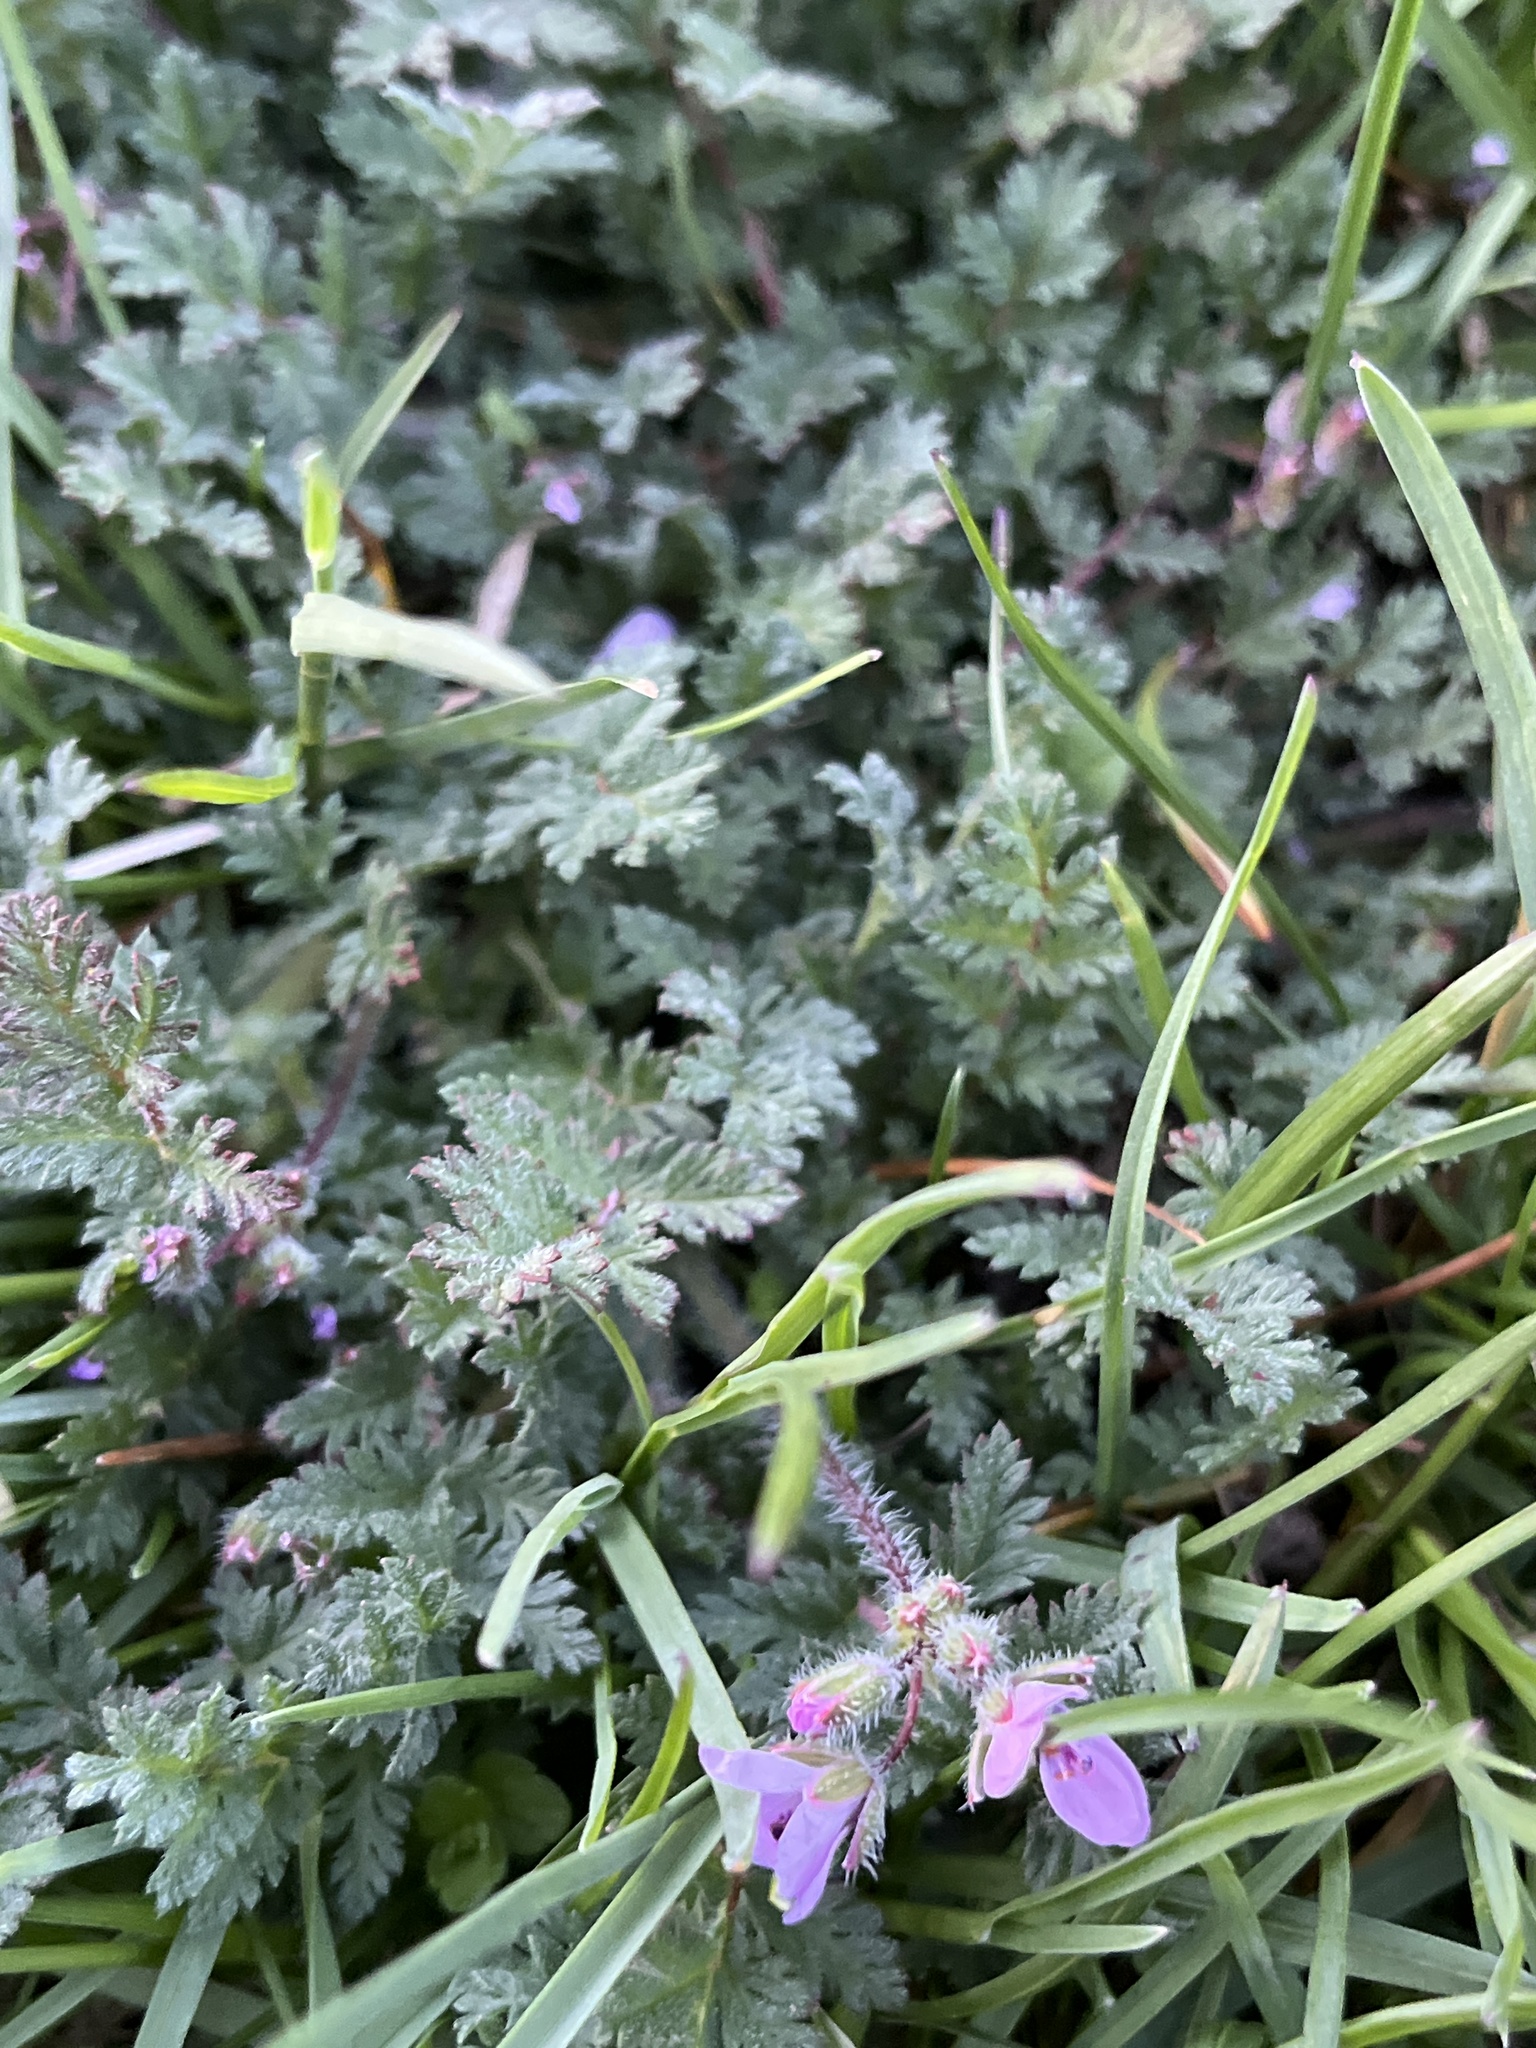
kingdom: Plantae
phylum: Tracheophyta
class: Magnoliopsida
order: Geraniales
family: Geraniaceae
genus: Erodium
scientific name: Erodium cicutarium
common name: Common stork's-bill
